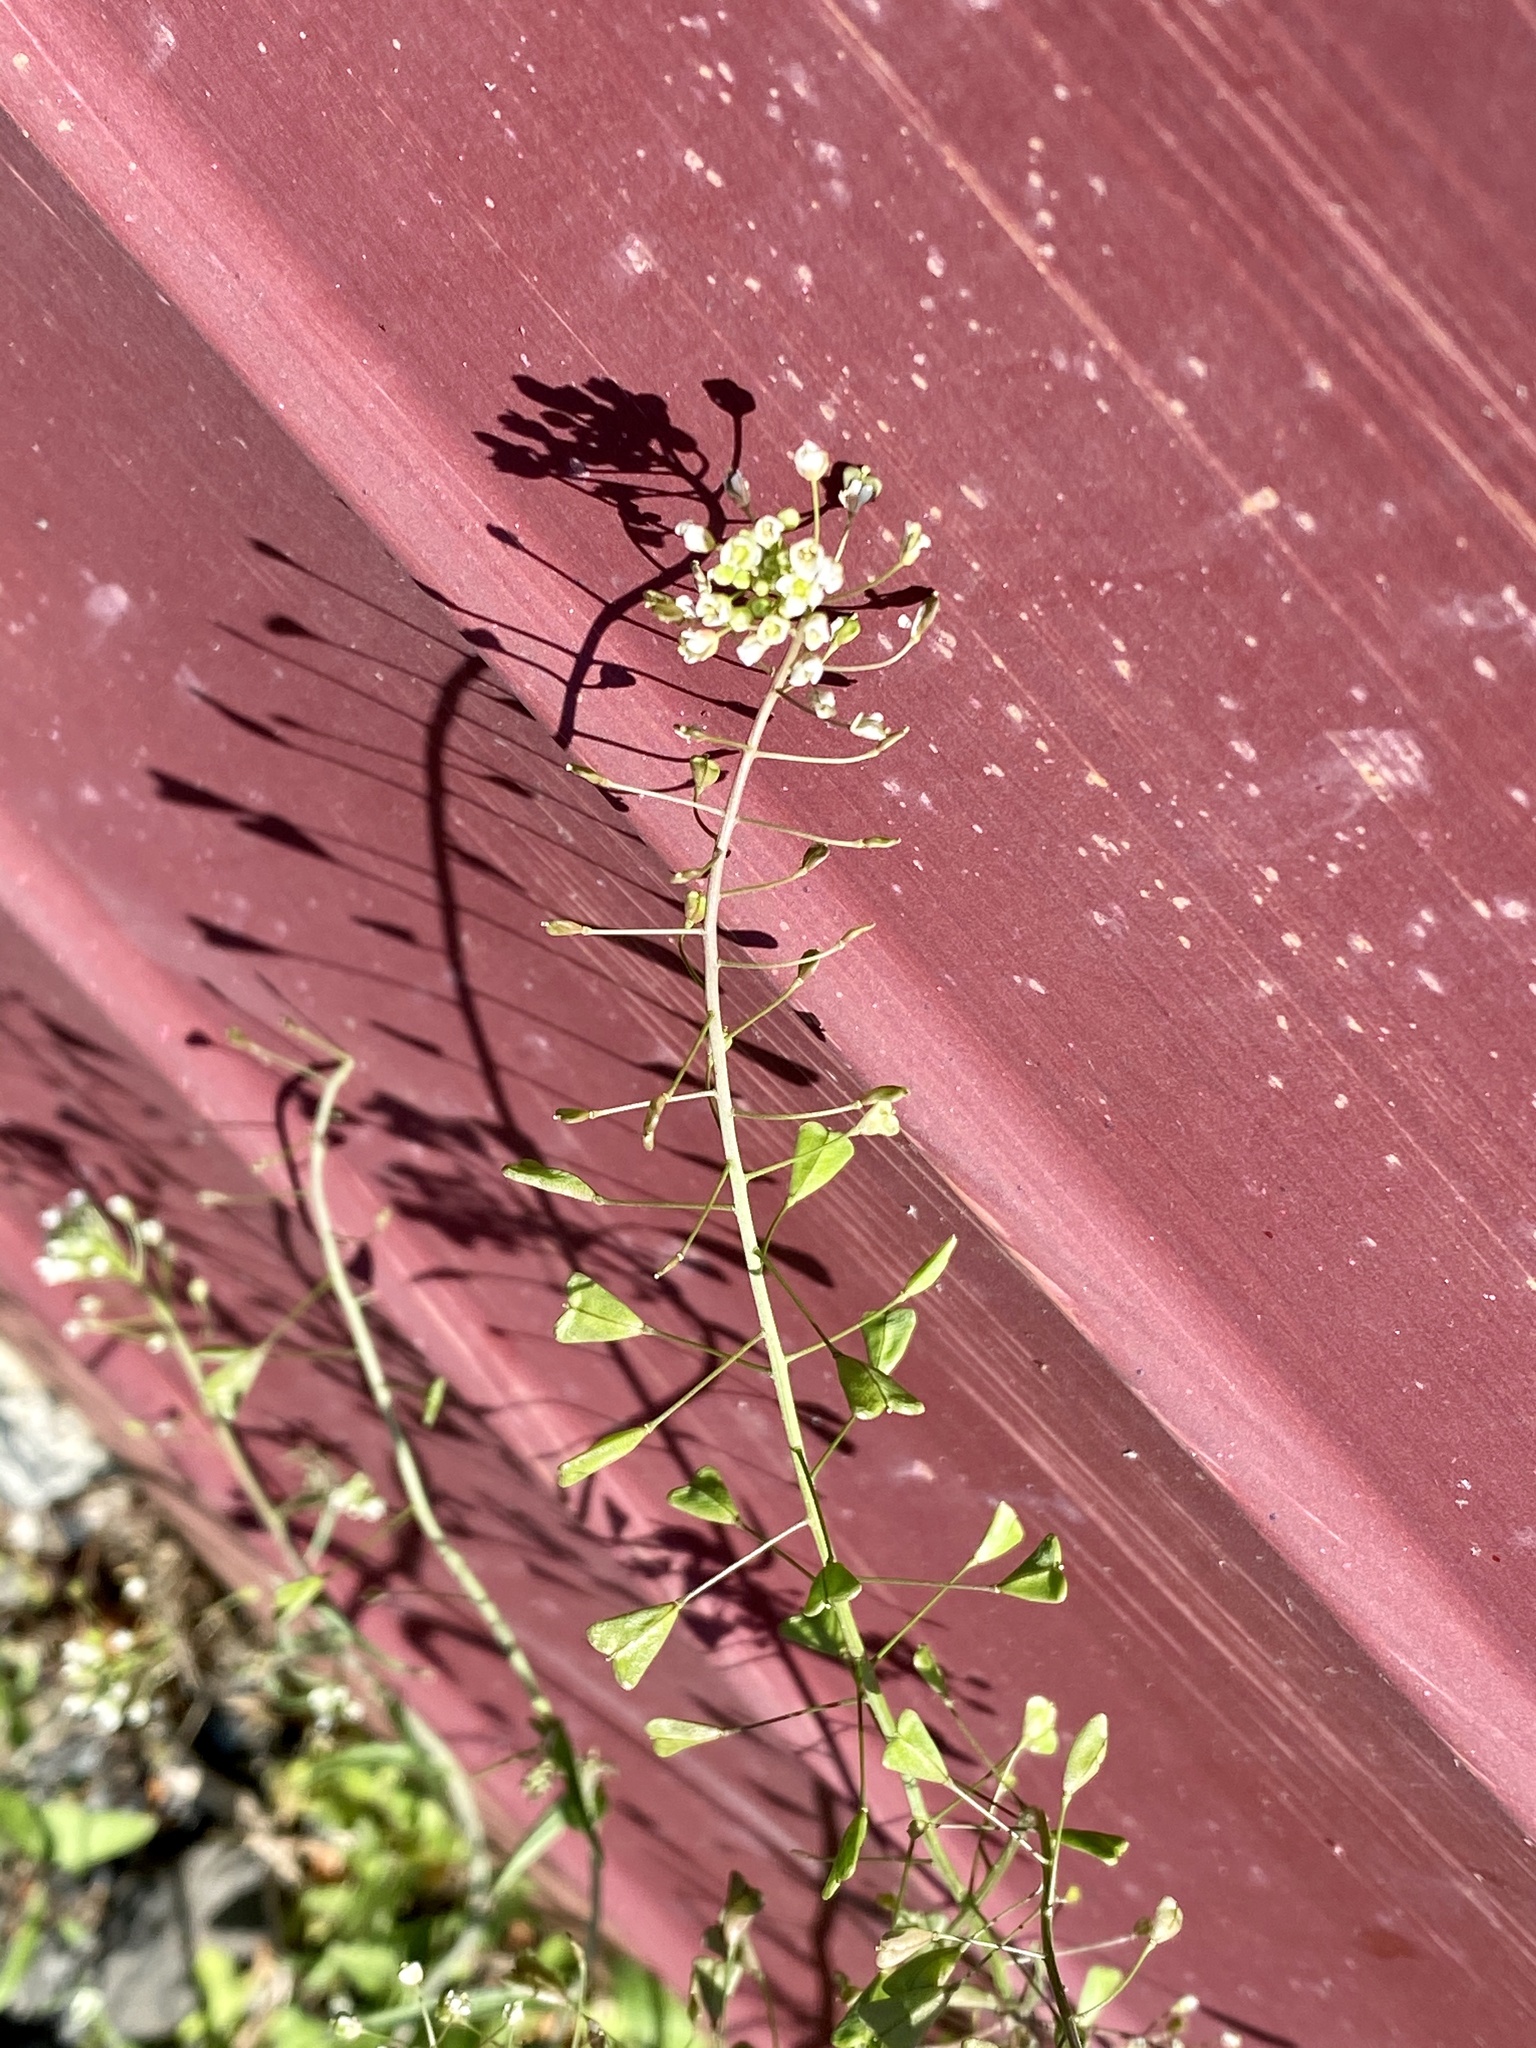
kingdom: Plantae
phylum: Tracheophyta
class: Magnoliopsida
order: Brassicales
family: Brassicaceae
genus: Capsella
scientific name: Capsella bursa-pastoris
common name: Shepherd's purse
